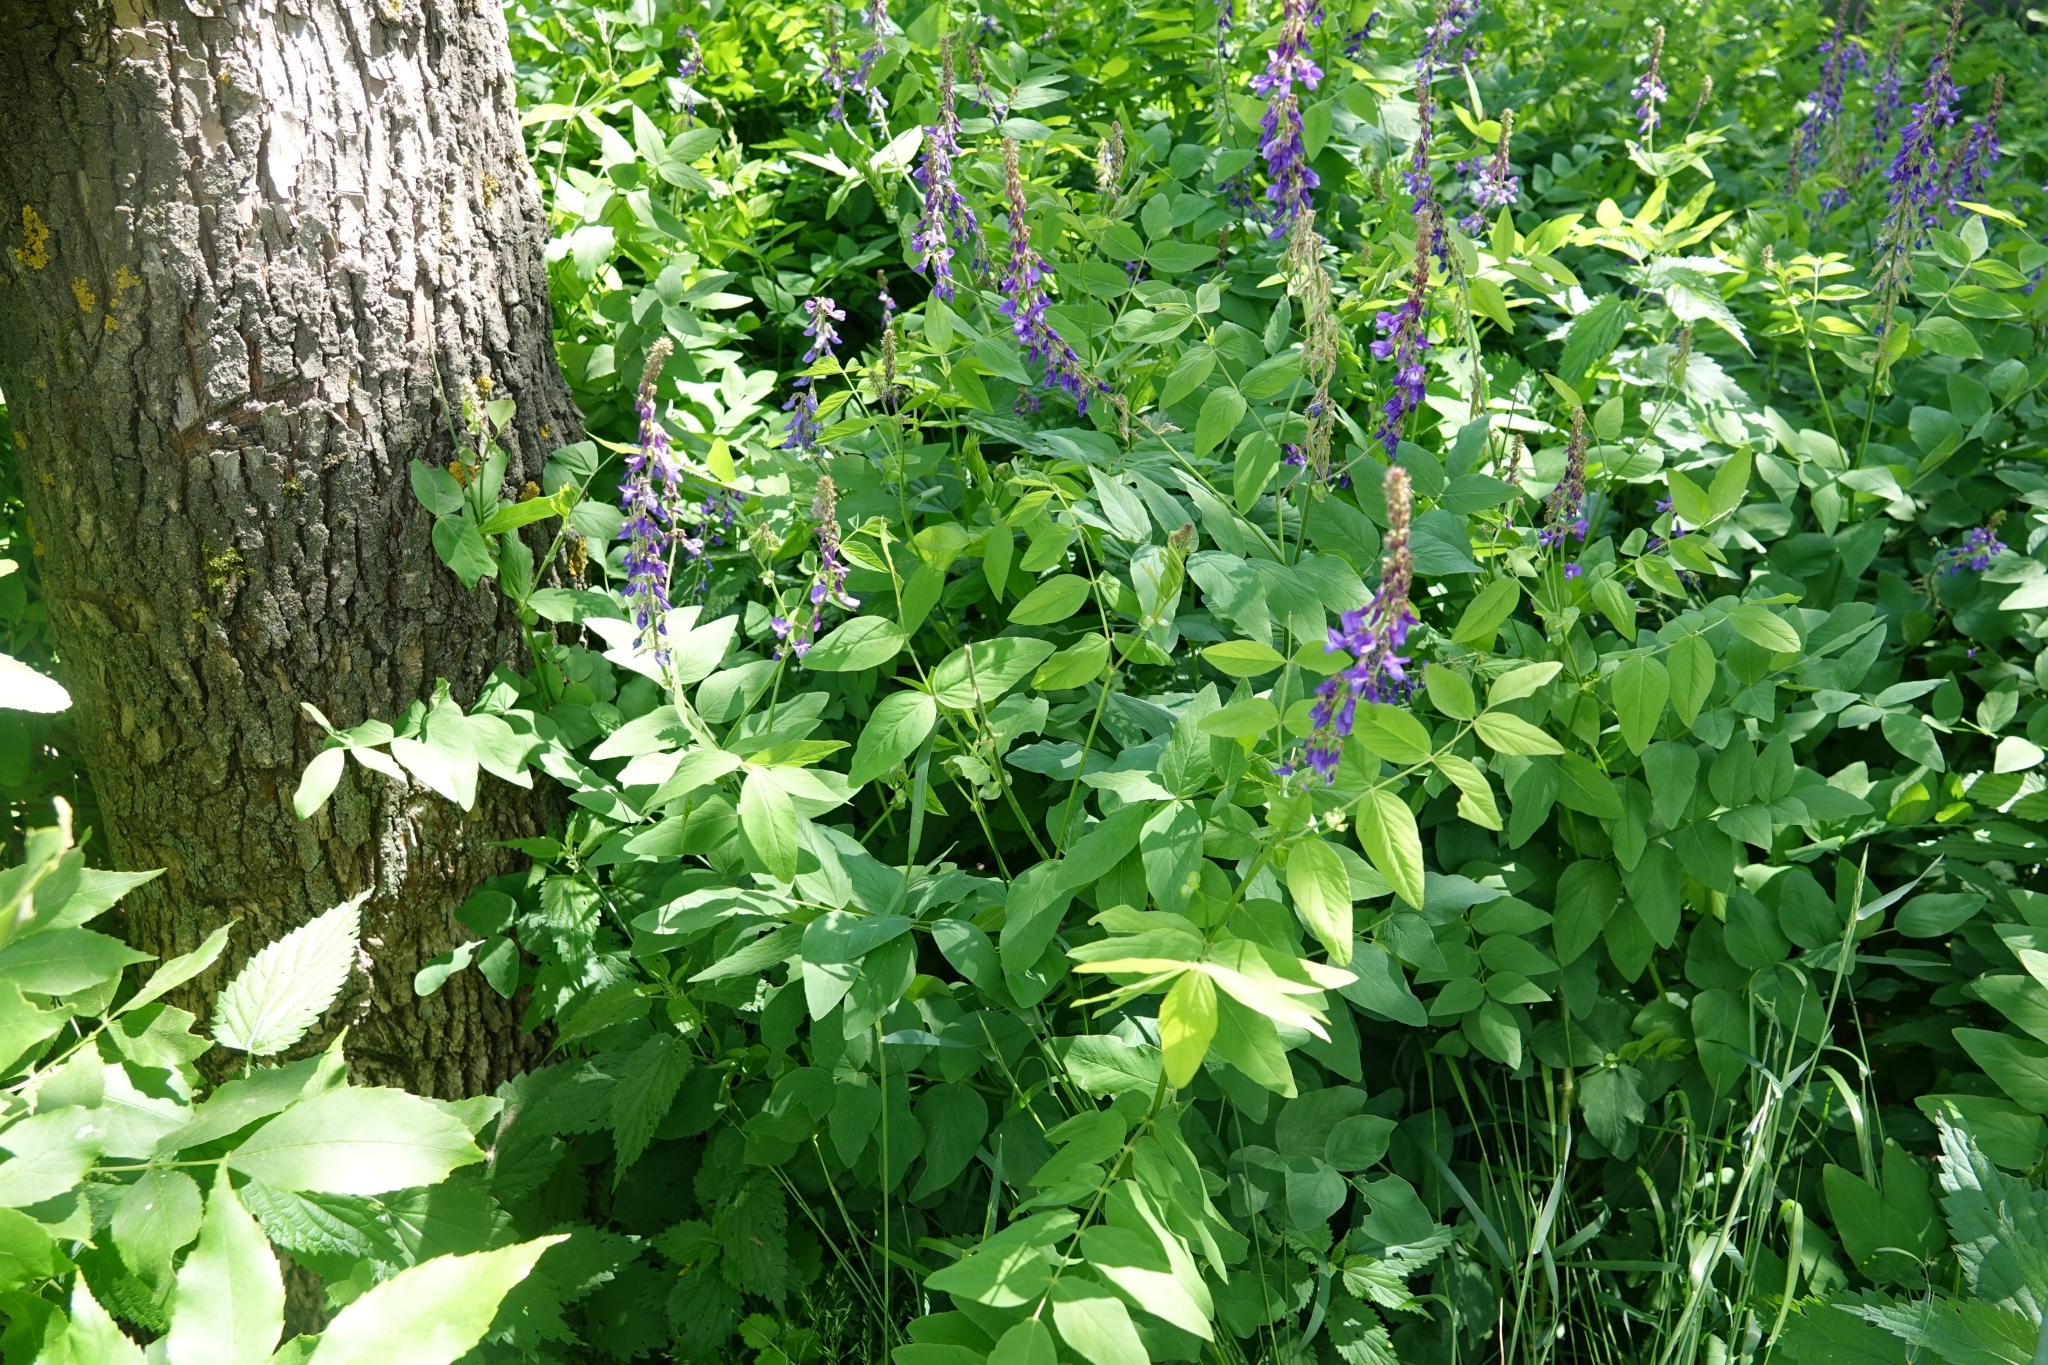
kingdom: Plantae
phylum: Tracheophyta
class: Magnoliopsida
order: Fabales
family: Fabaceae
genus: Galega
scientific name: Galega orientalis
